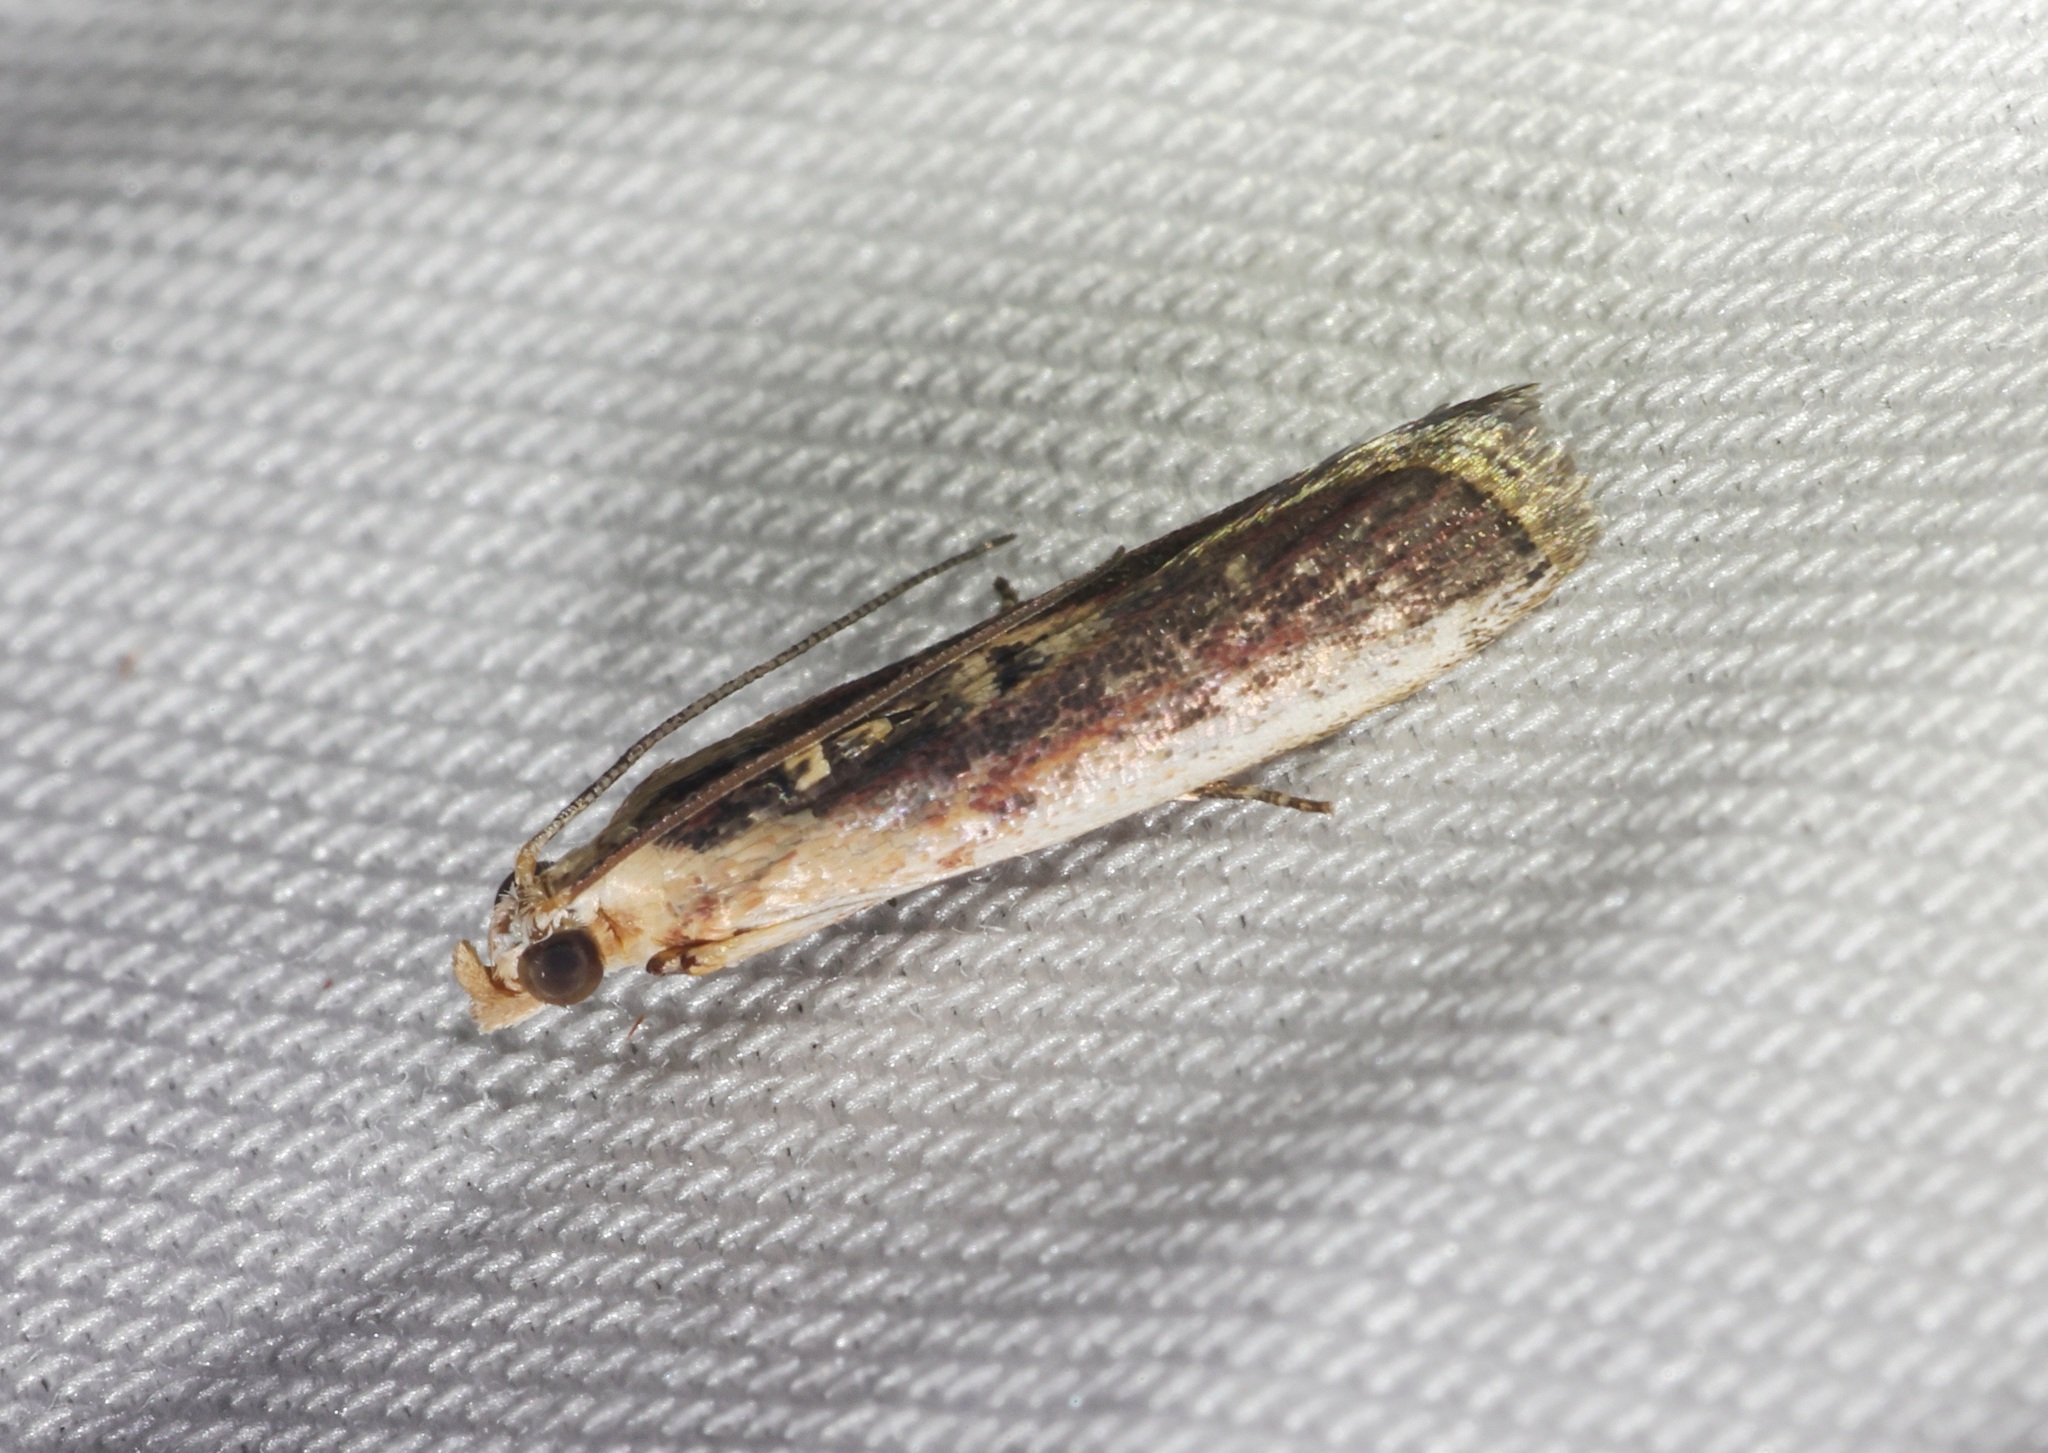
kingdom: Animalia
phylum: Arthropoda
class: Insecta
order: Lepidoptera
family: Pyralidae
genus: Cathyalia
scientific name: Cathyalia
